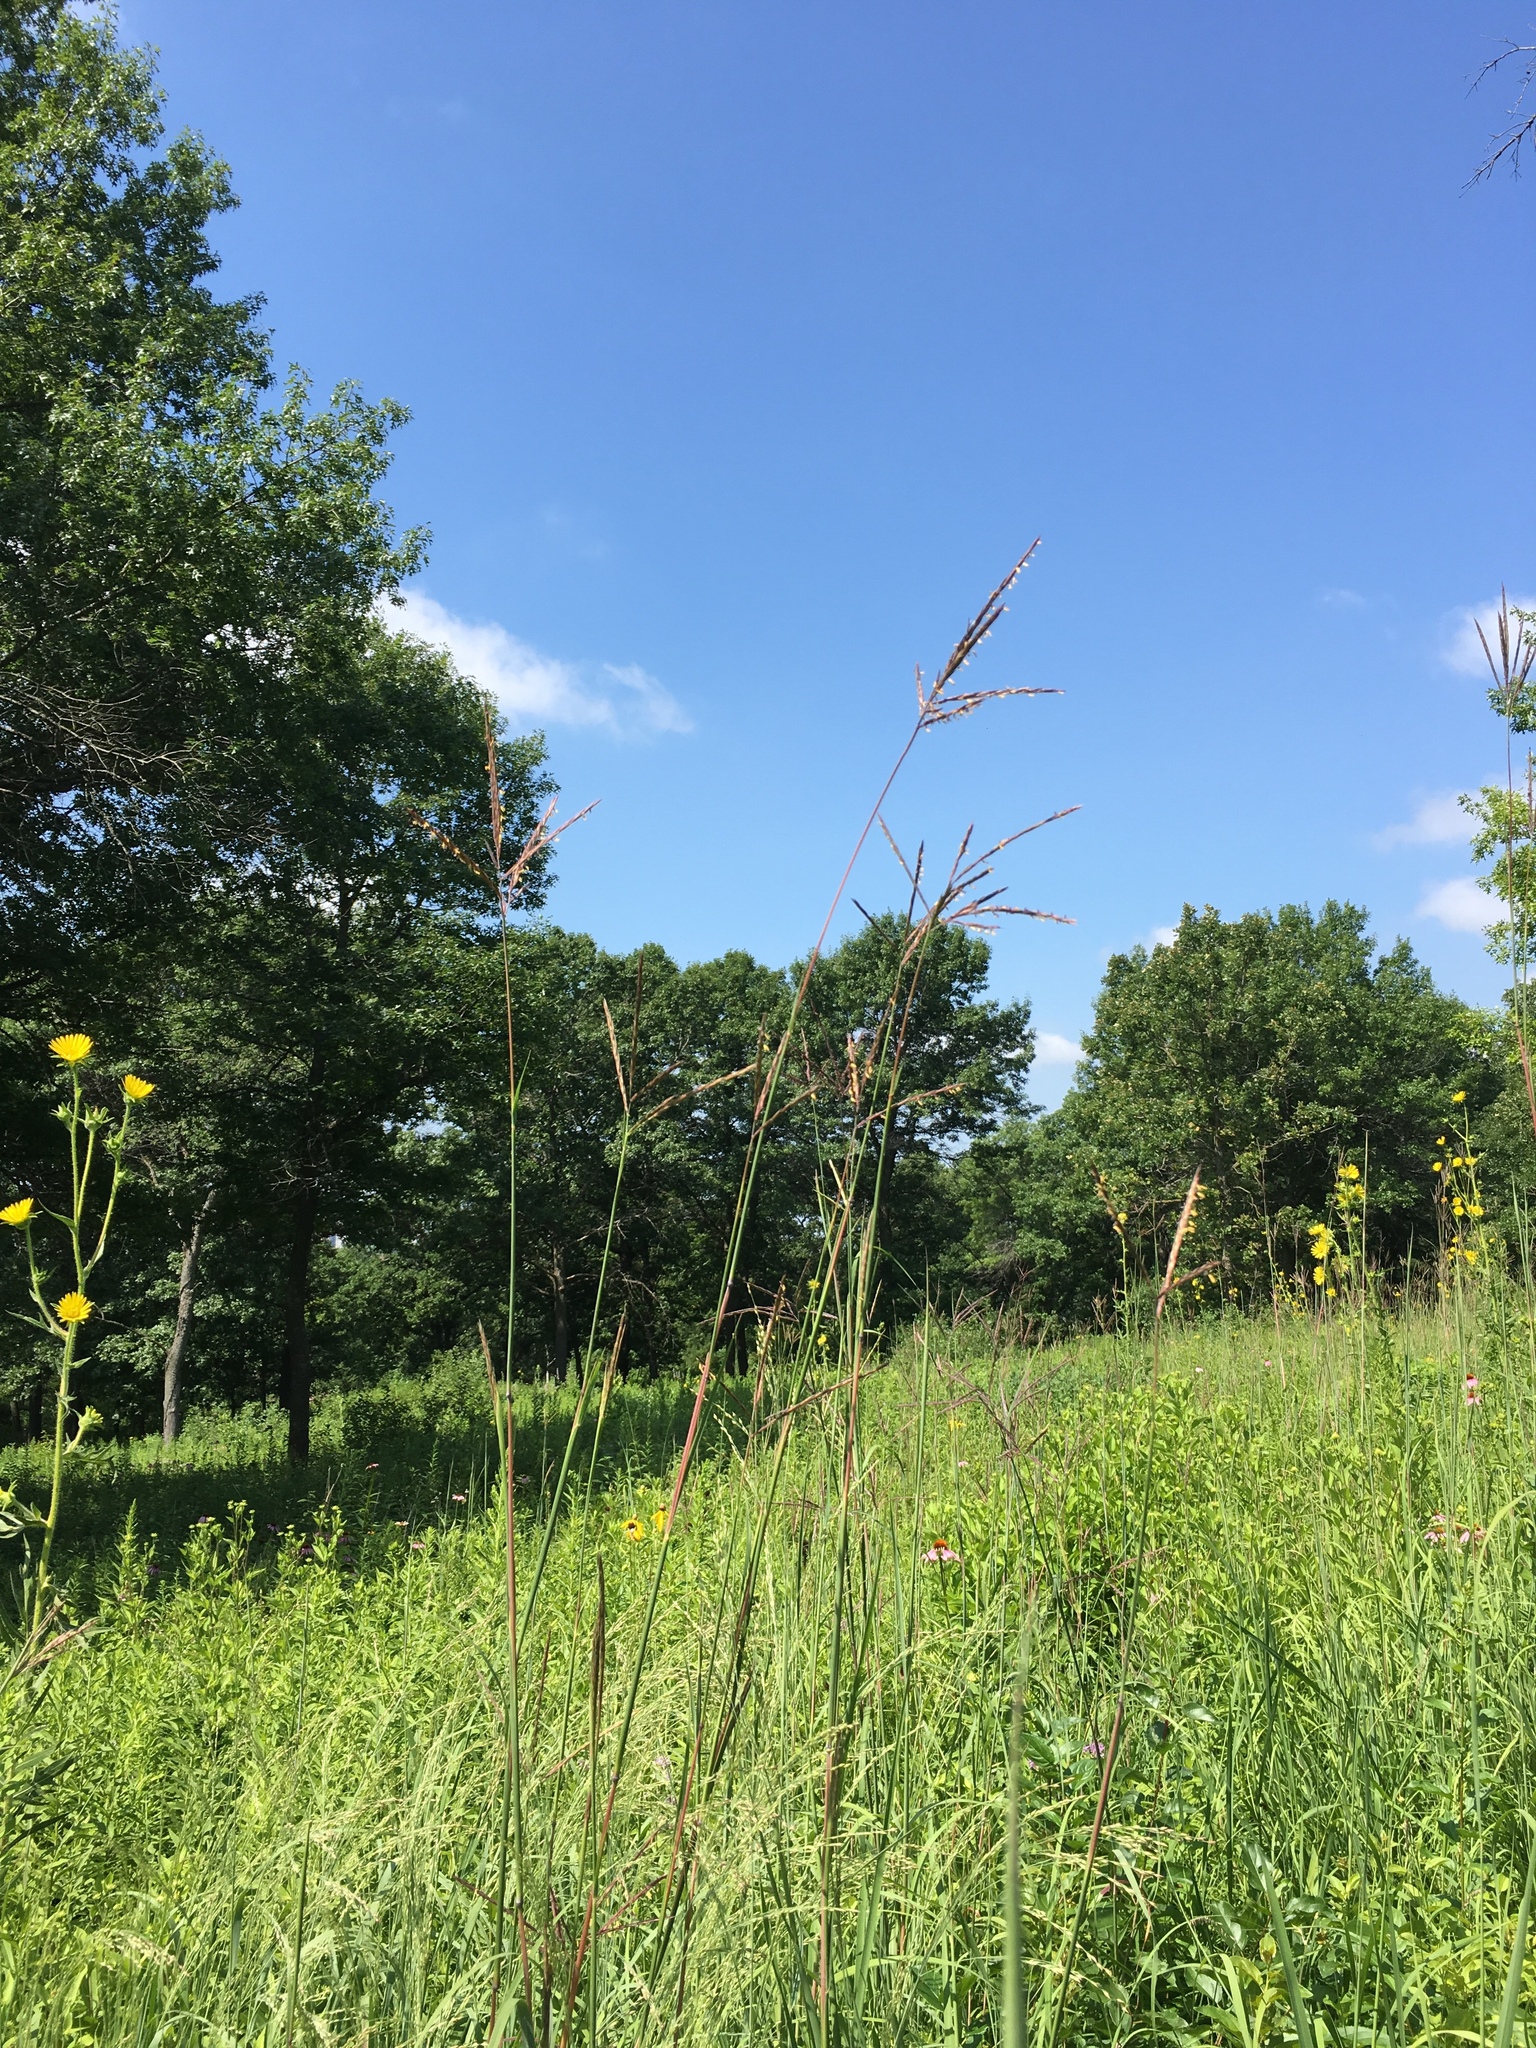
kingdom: Plantae
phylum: Tracheophyta
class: Liliopsida
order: Poales
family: Poaceae
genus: Andropogon
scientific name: Andropogon gerardi
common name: Big bluestem
